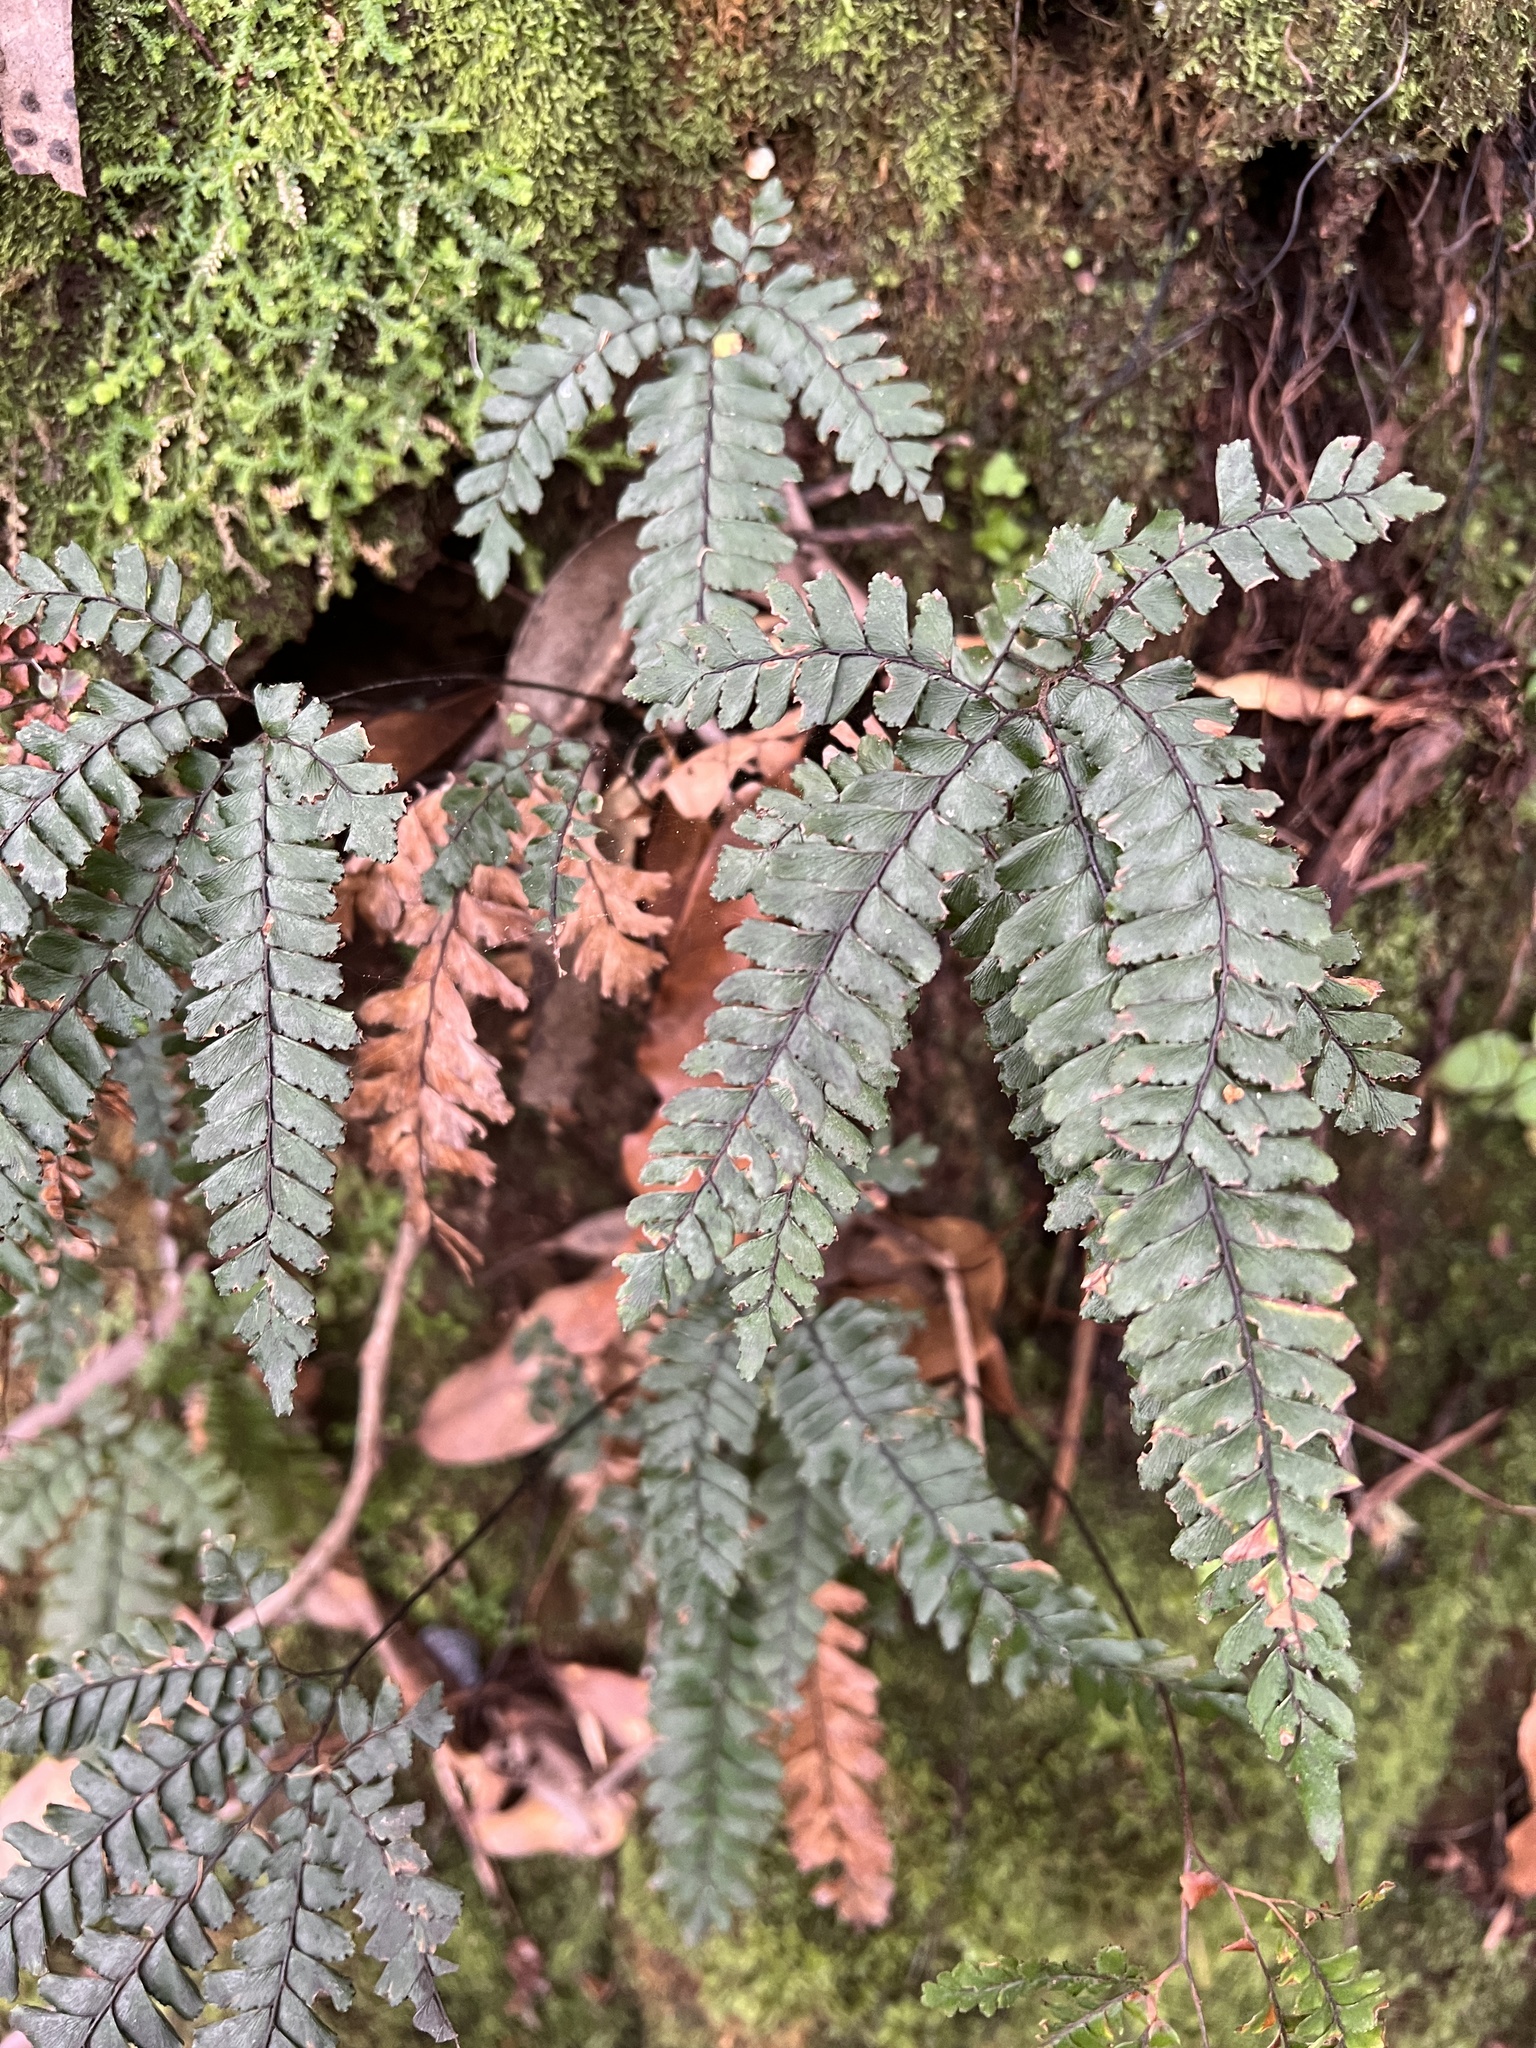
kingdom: Plantae
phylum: Tracheophyta
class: Polypodiopsida
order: Polypodiales
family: Pteridaceae
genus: Adiantum
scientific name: Adiantum hispidulum
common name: Rough maidenhair
